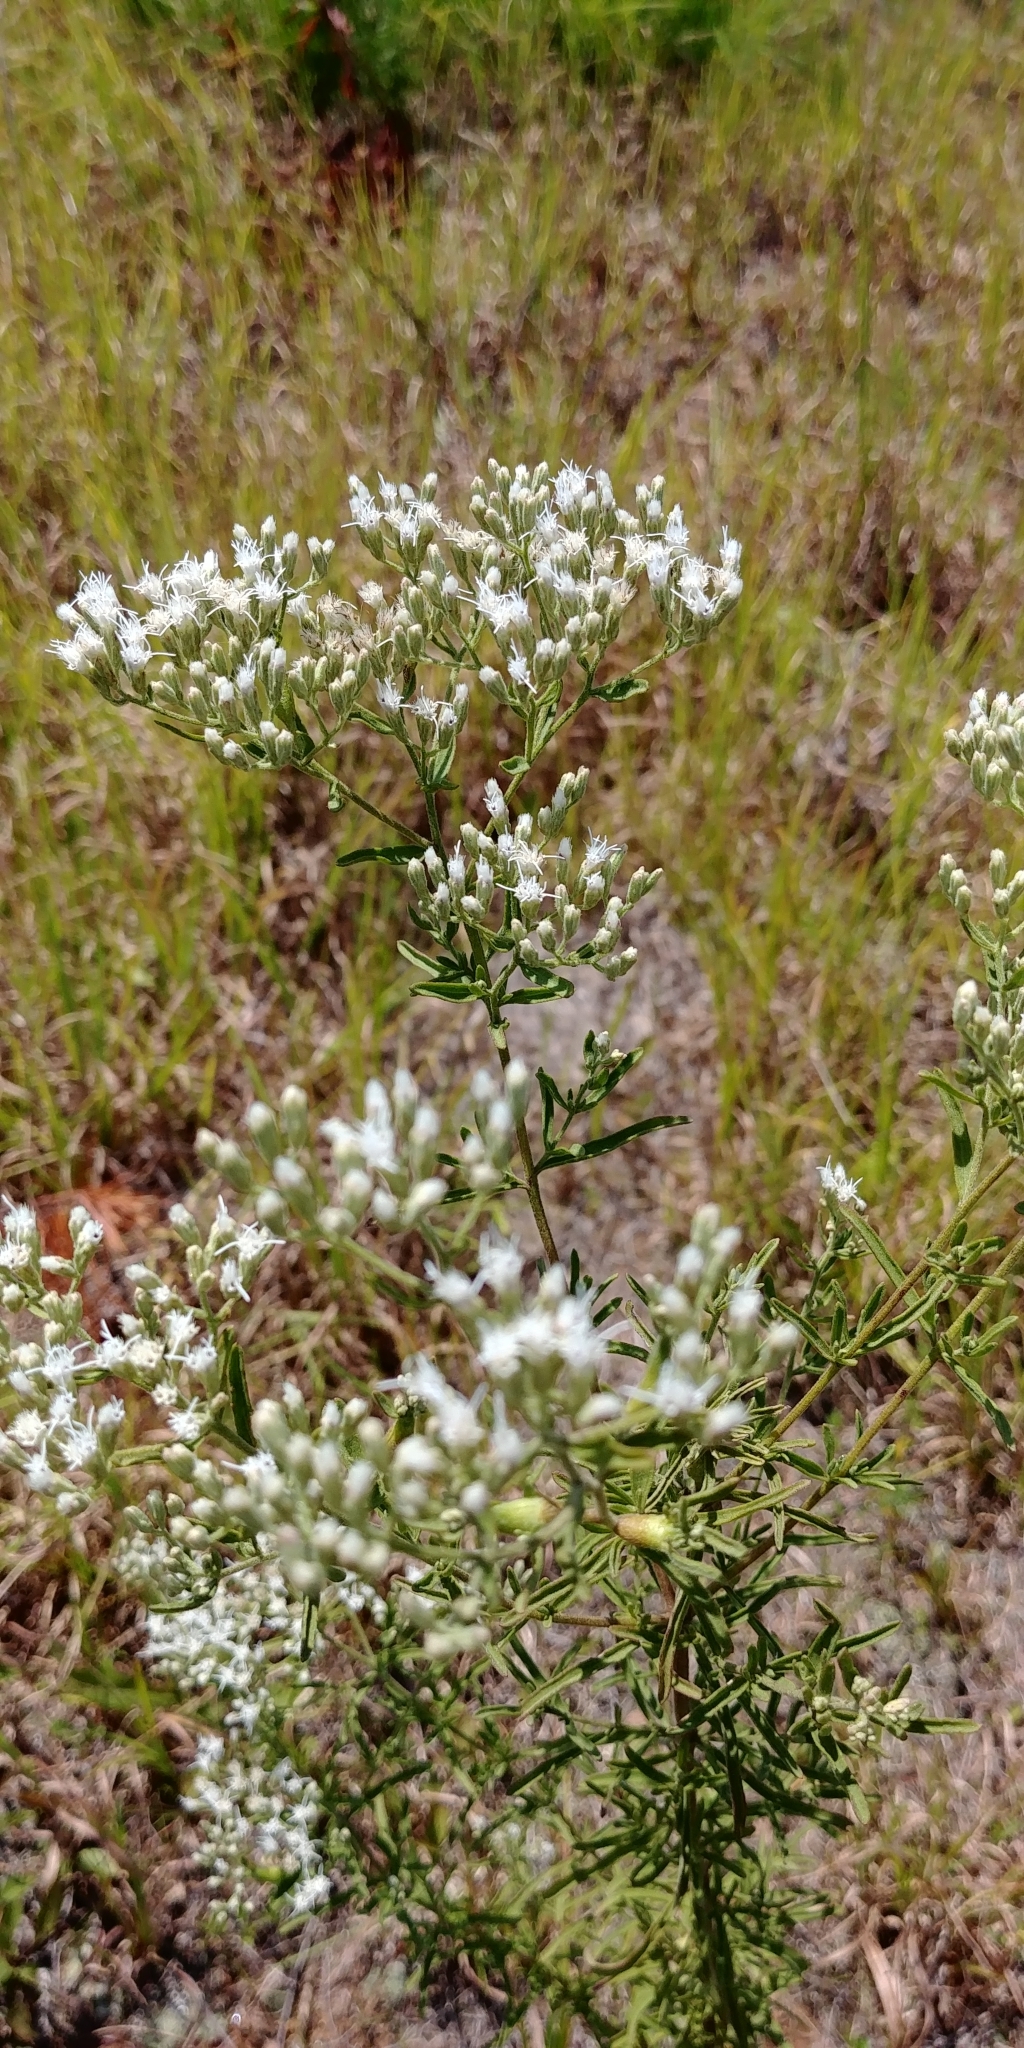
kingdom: Plantae
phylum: Tracheophyta
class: Magnoliopsida
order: Asterales
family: Asteraceae
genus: Eupatorium
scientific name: Eupatorium hyssopifolium
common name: Hyssop-leaf thoroughwort
